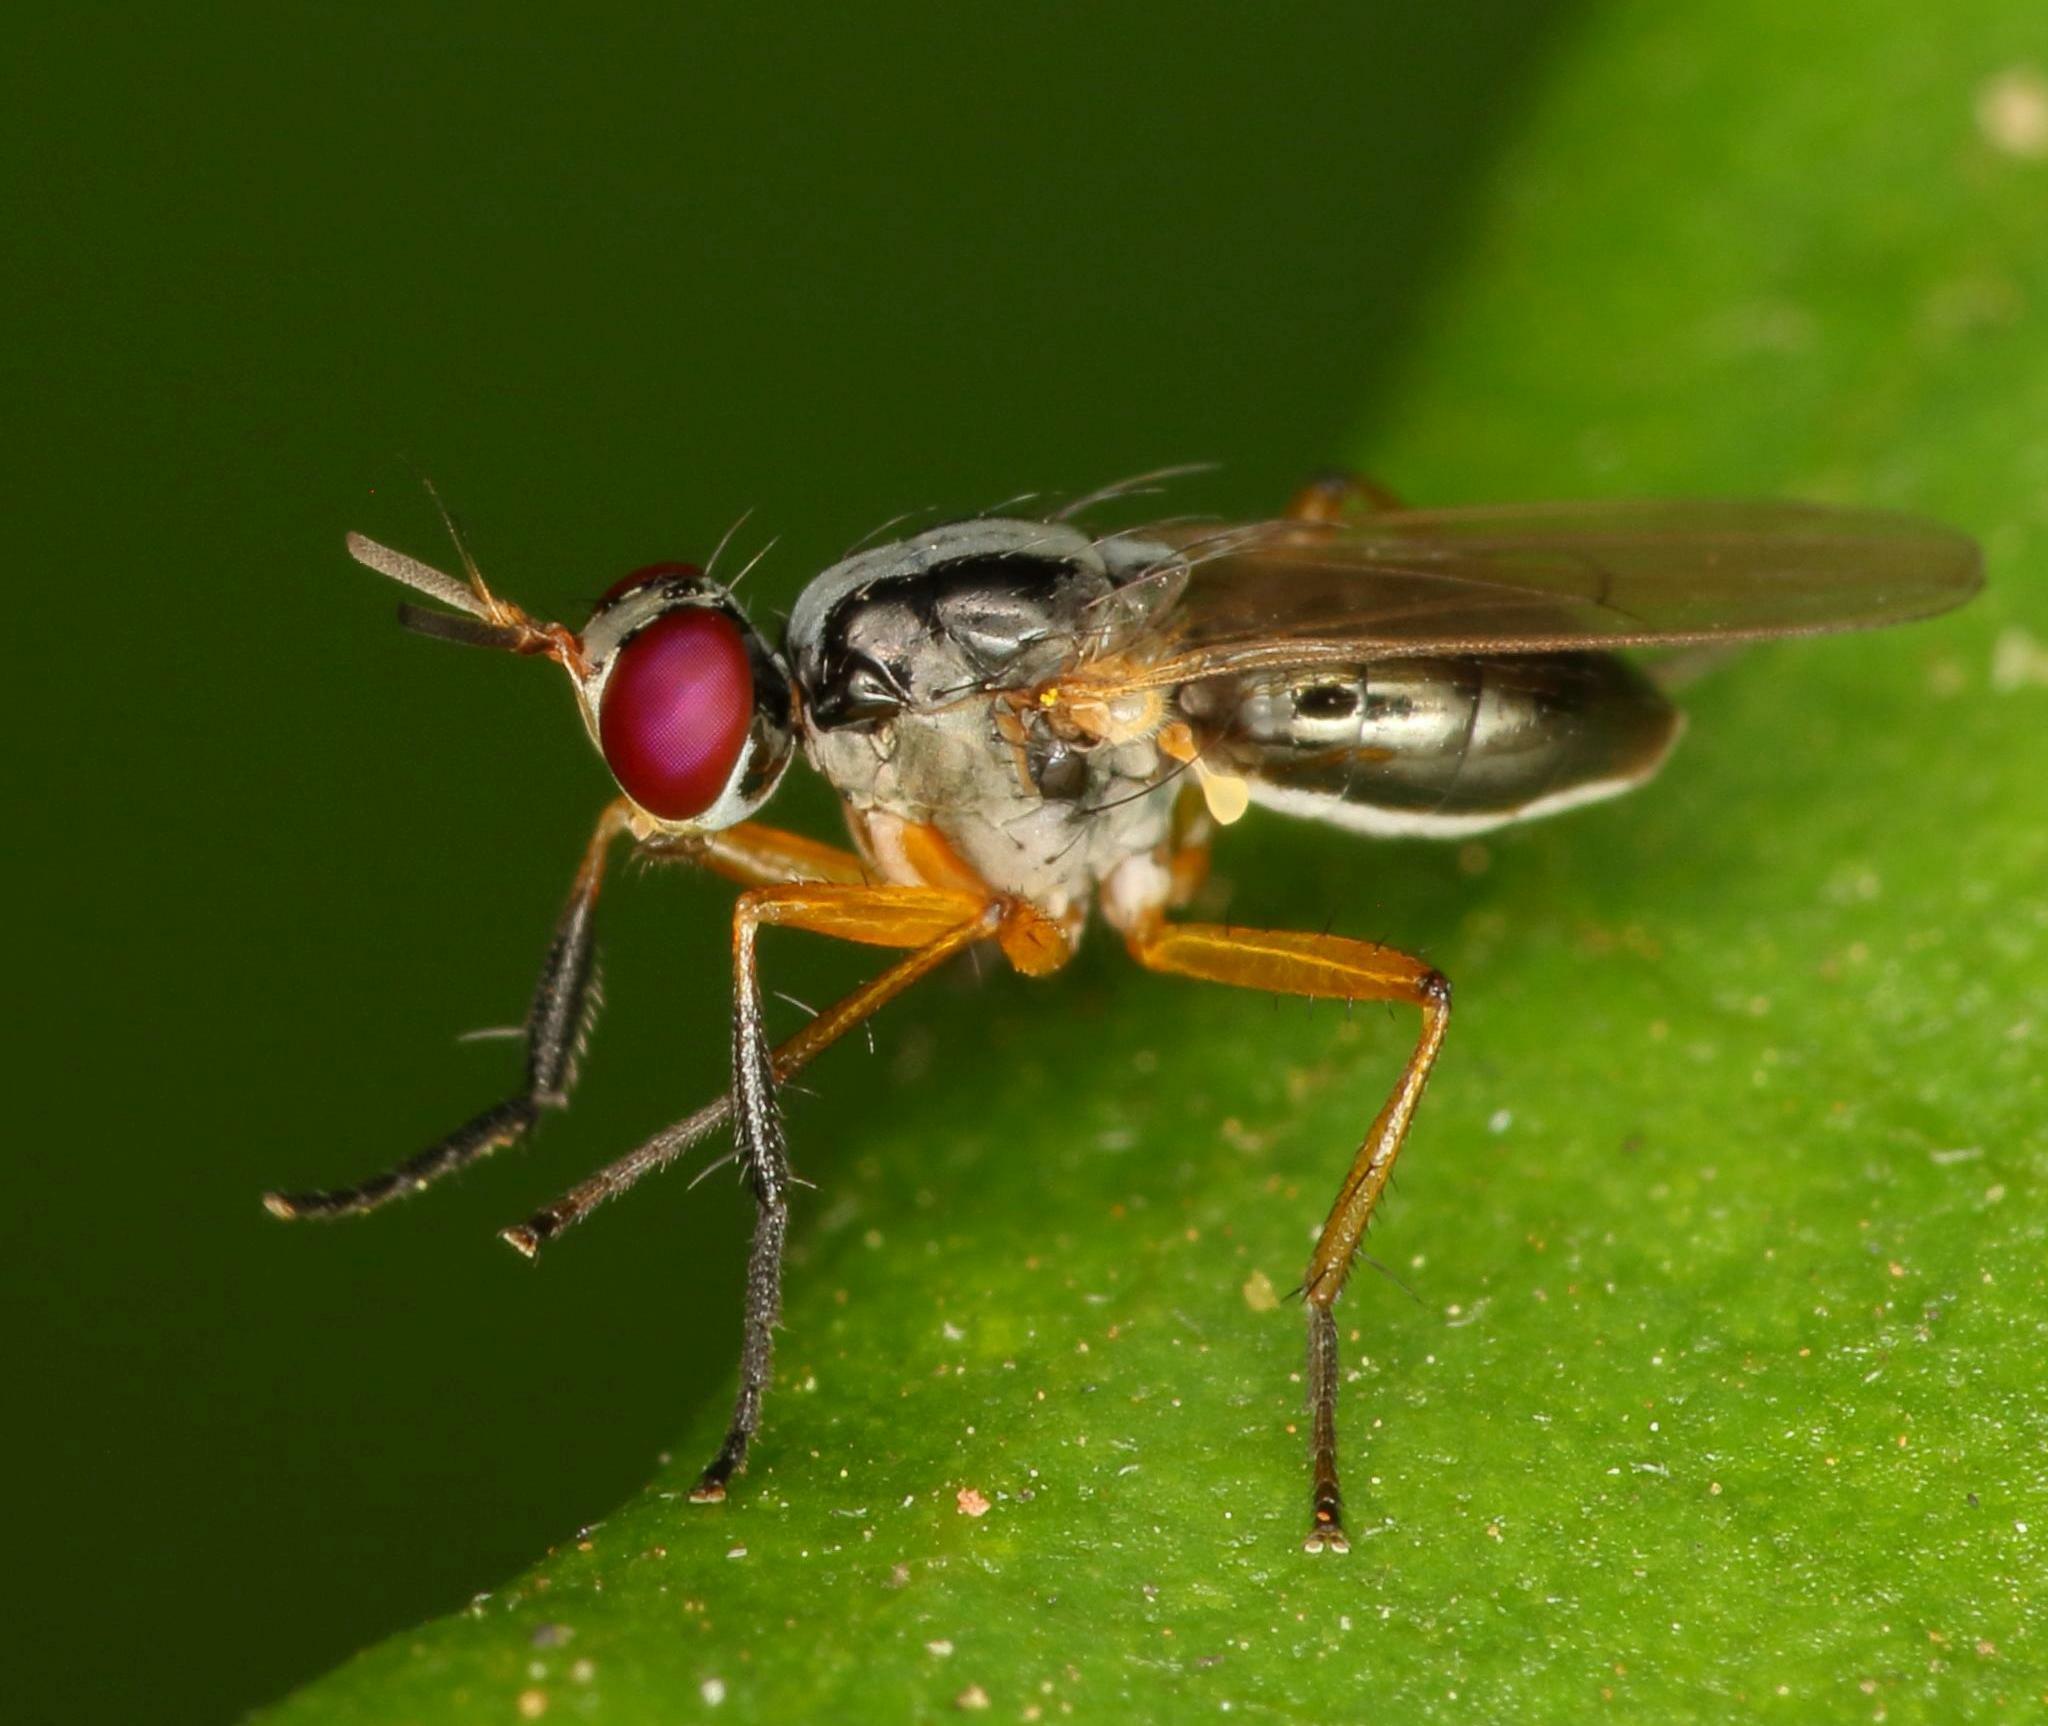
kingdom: Animalia
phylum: Arthropoda
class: Insecta
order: Diptera
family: Muscidae
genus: Anaphalantus
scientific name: Anaphalantus longicornis
